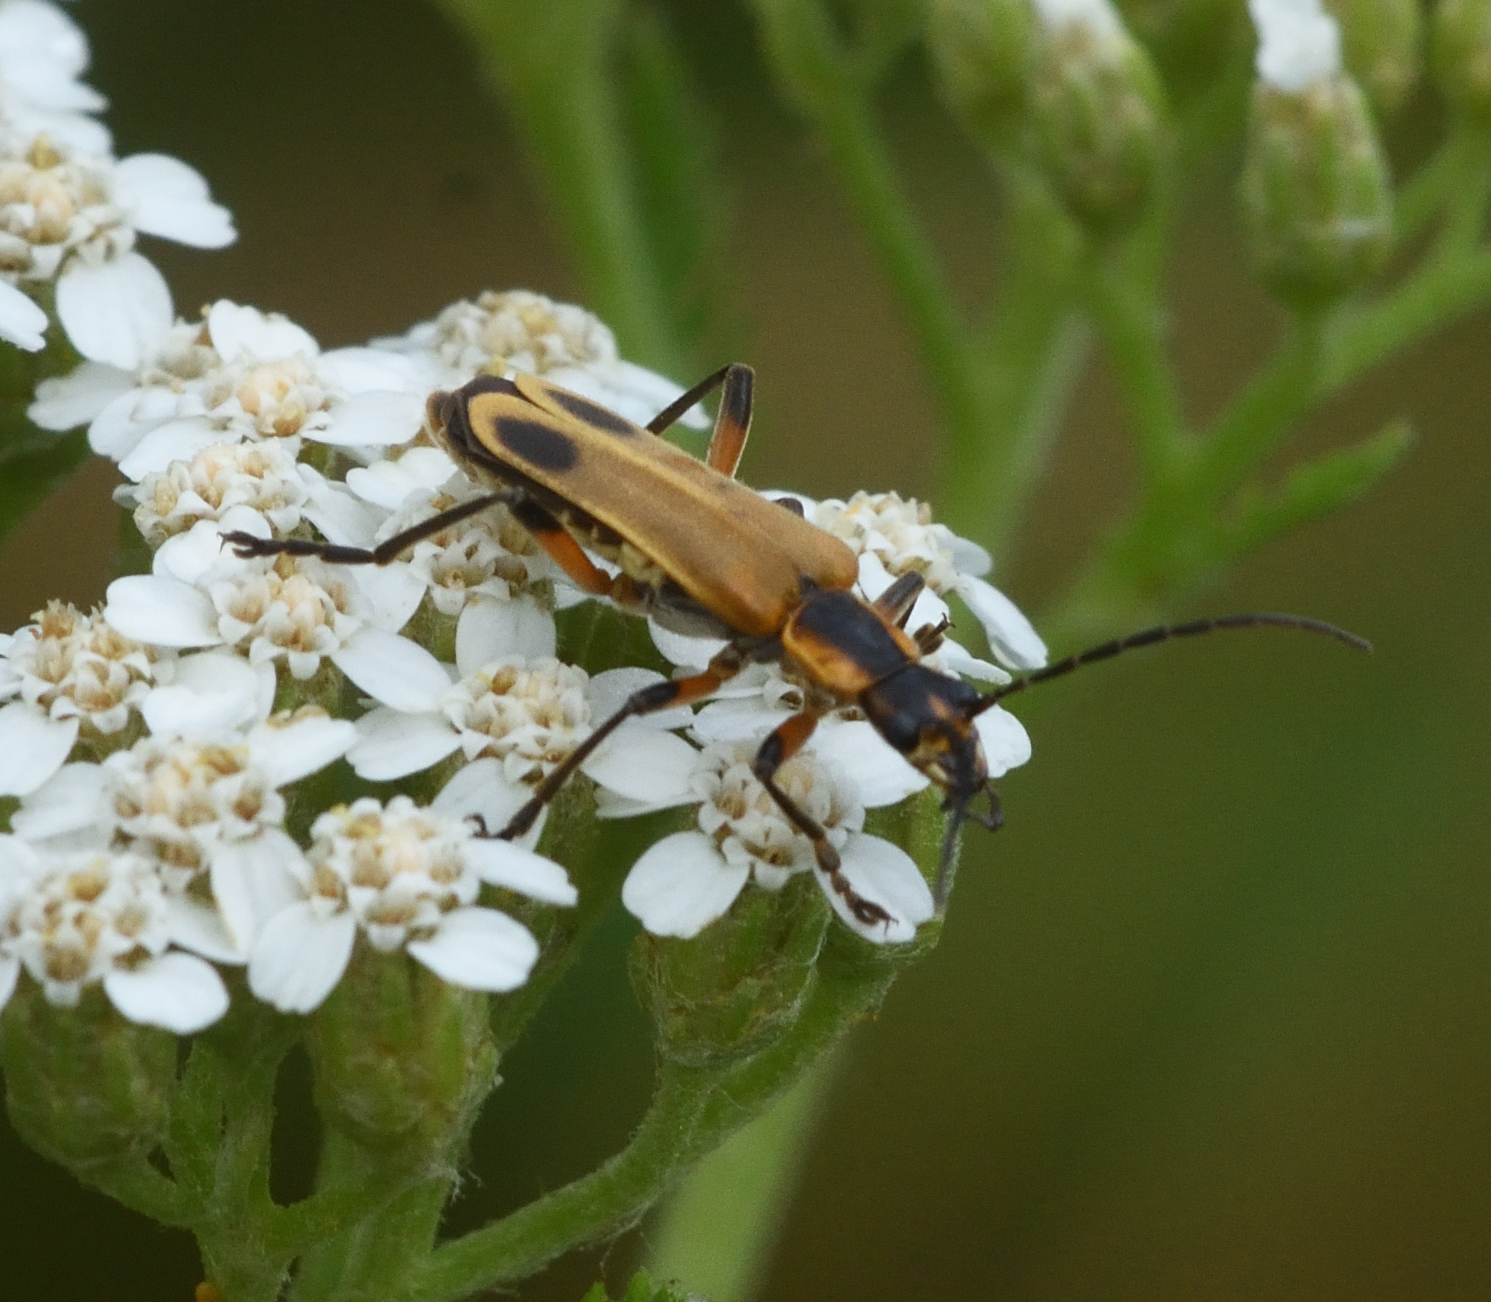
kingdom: Animalia
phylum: Arthropoda
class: Insecta
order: Coleoptera
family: Cantharidae
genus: Chauliognathus
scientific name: Chauliognathus marginatus
